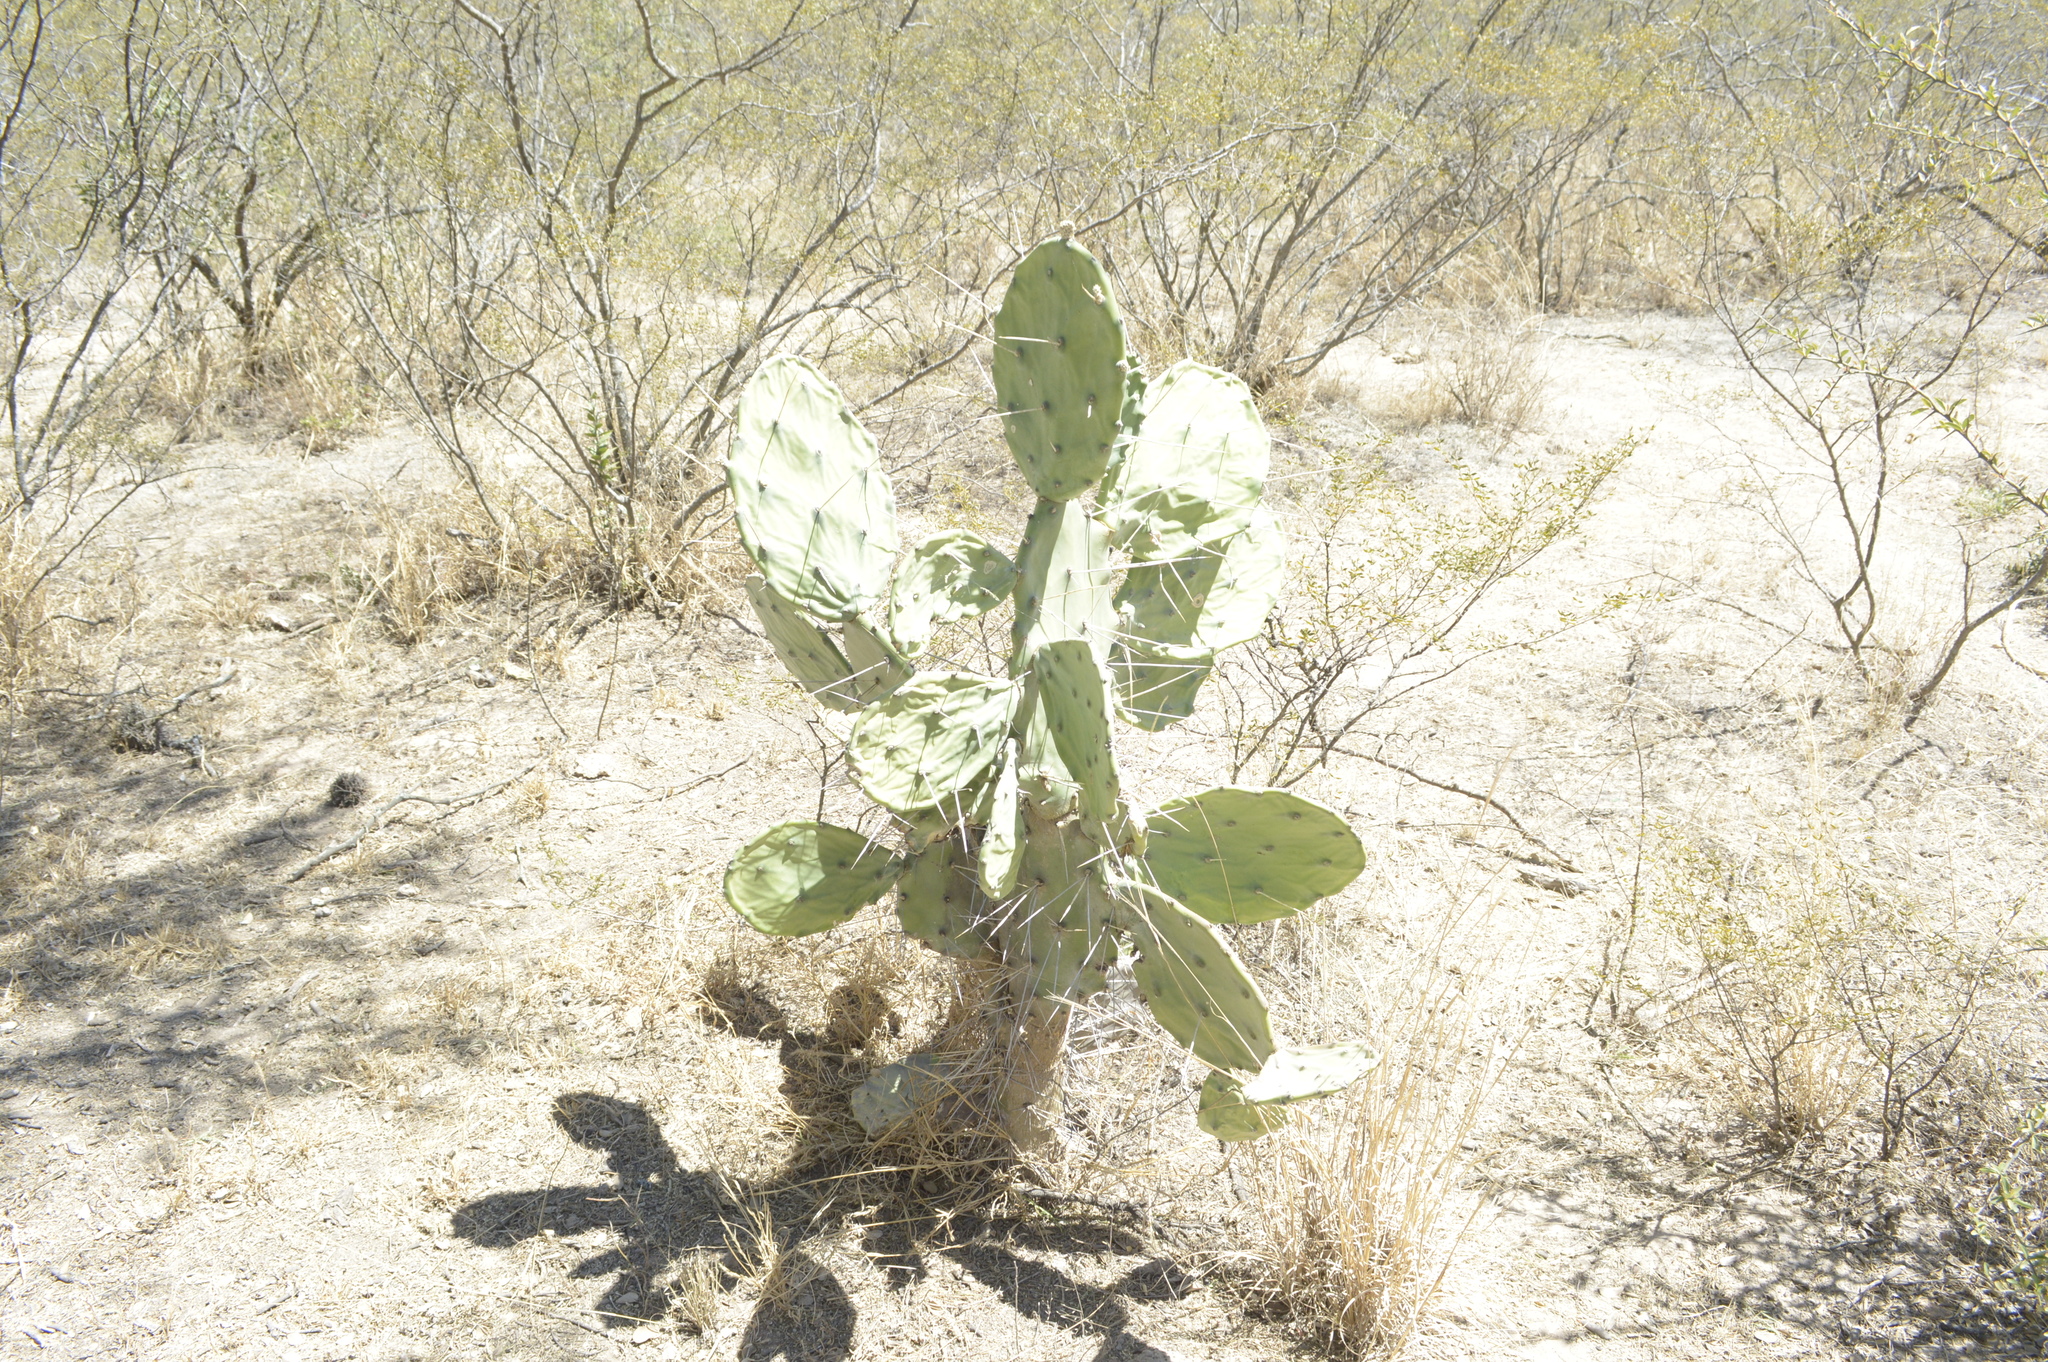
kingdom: Plantae
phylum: Tracheophyta
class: Magnoliopsida
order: Caryophyllales
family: Cactaceae
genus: Opuntia
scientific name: Opuntia quimilo
